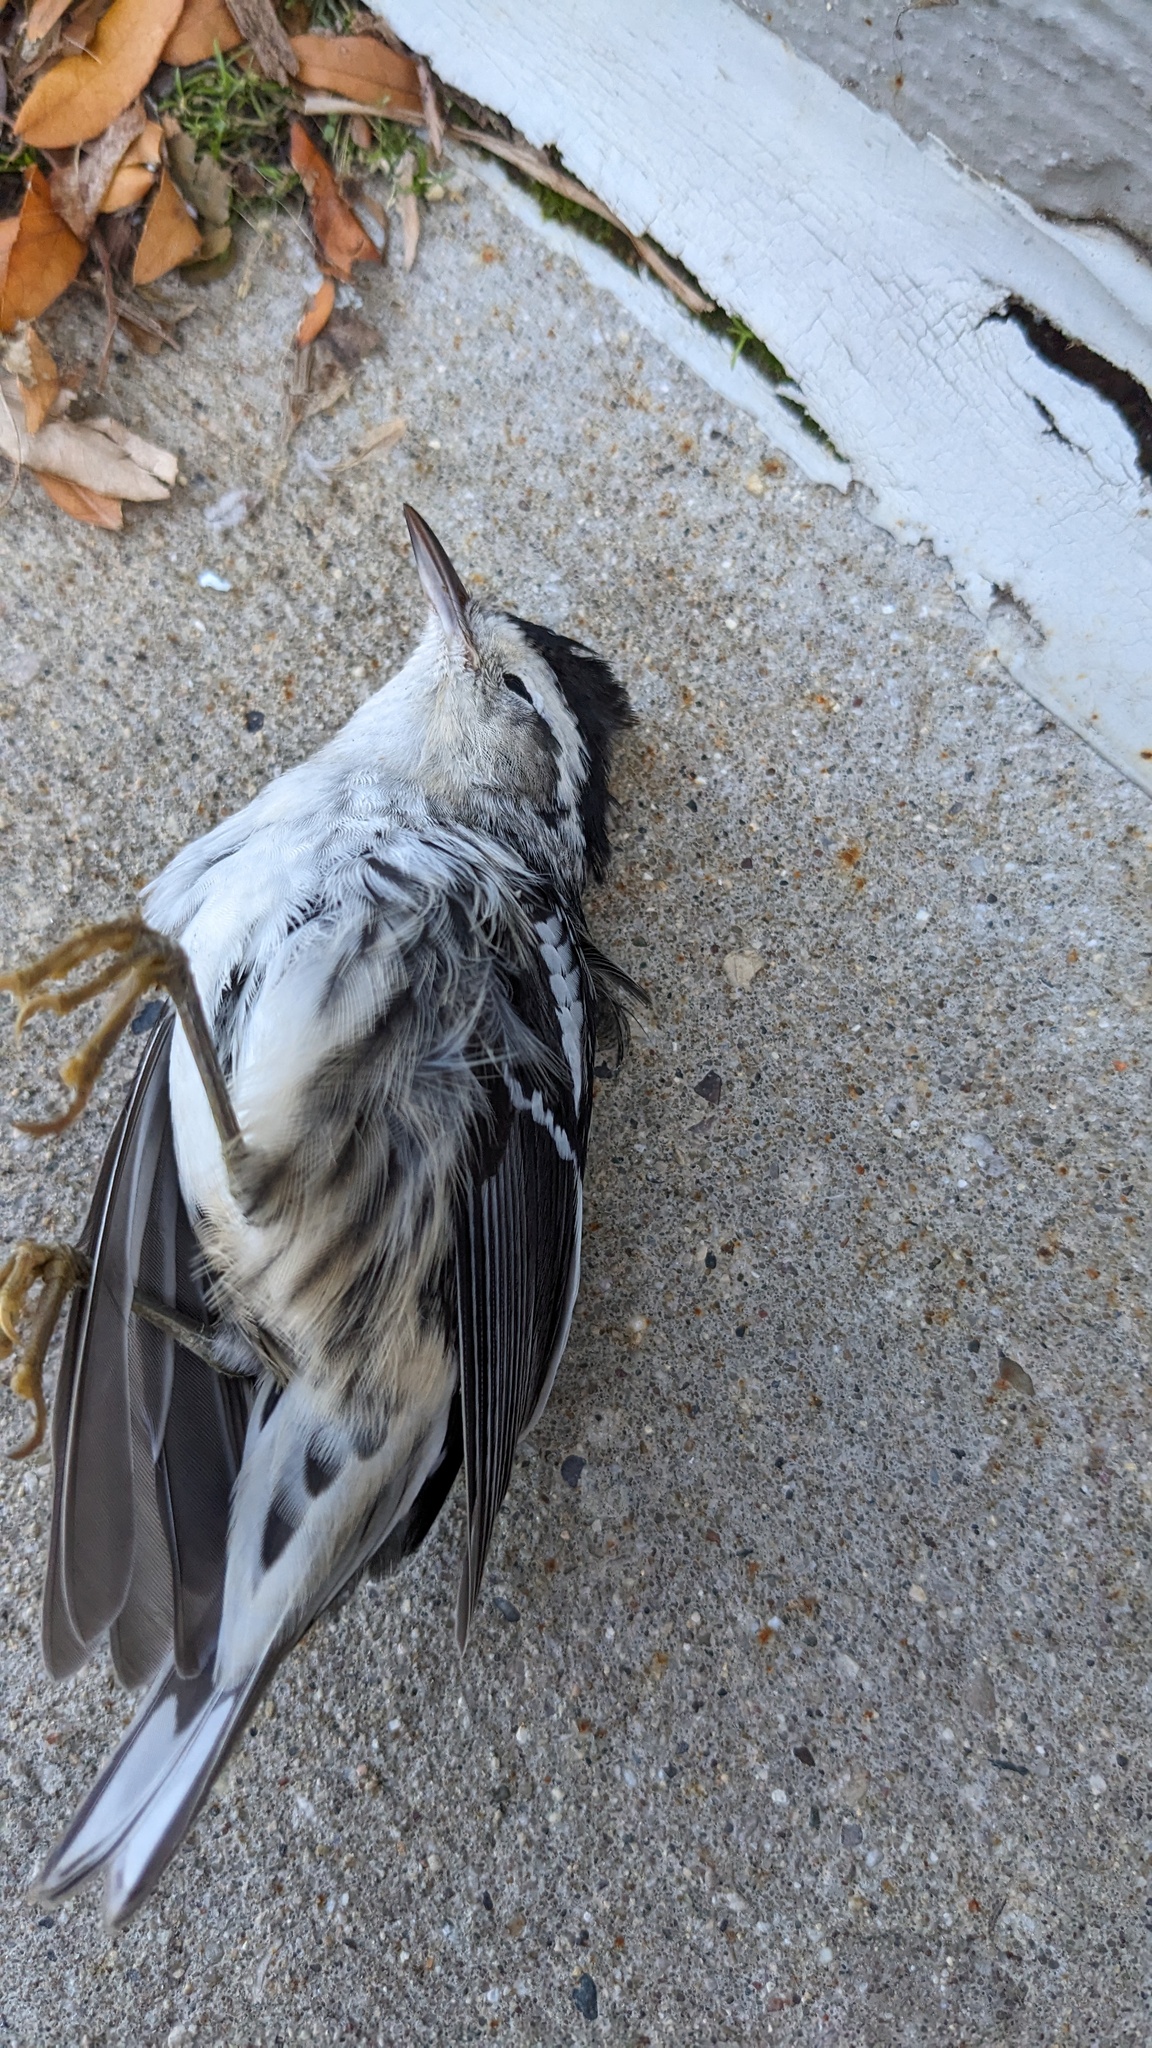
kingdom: Animalia
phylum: Chordata
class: Aves
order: Passeriformes
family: Parulidae
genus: Mniotilta
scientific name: Mniotilta varia
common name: Black-and-white warbler
